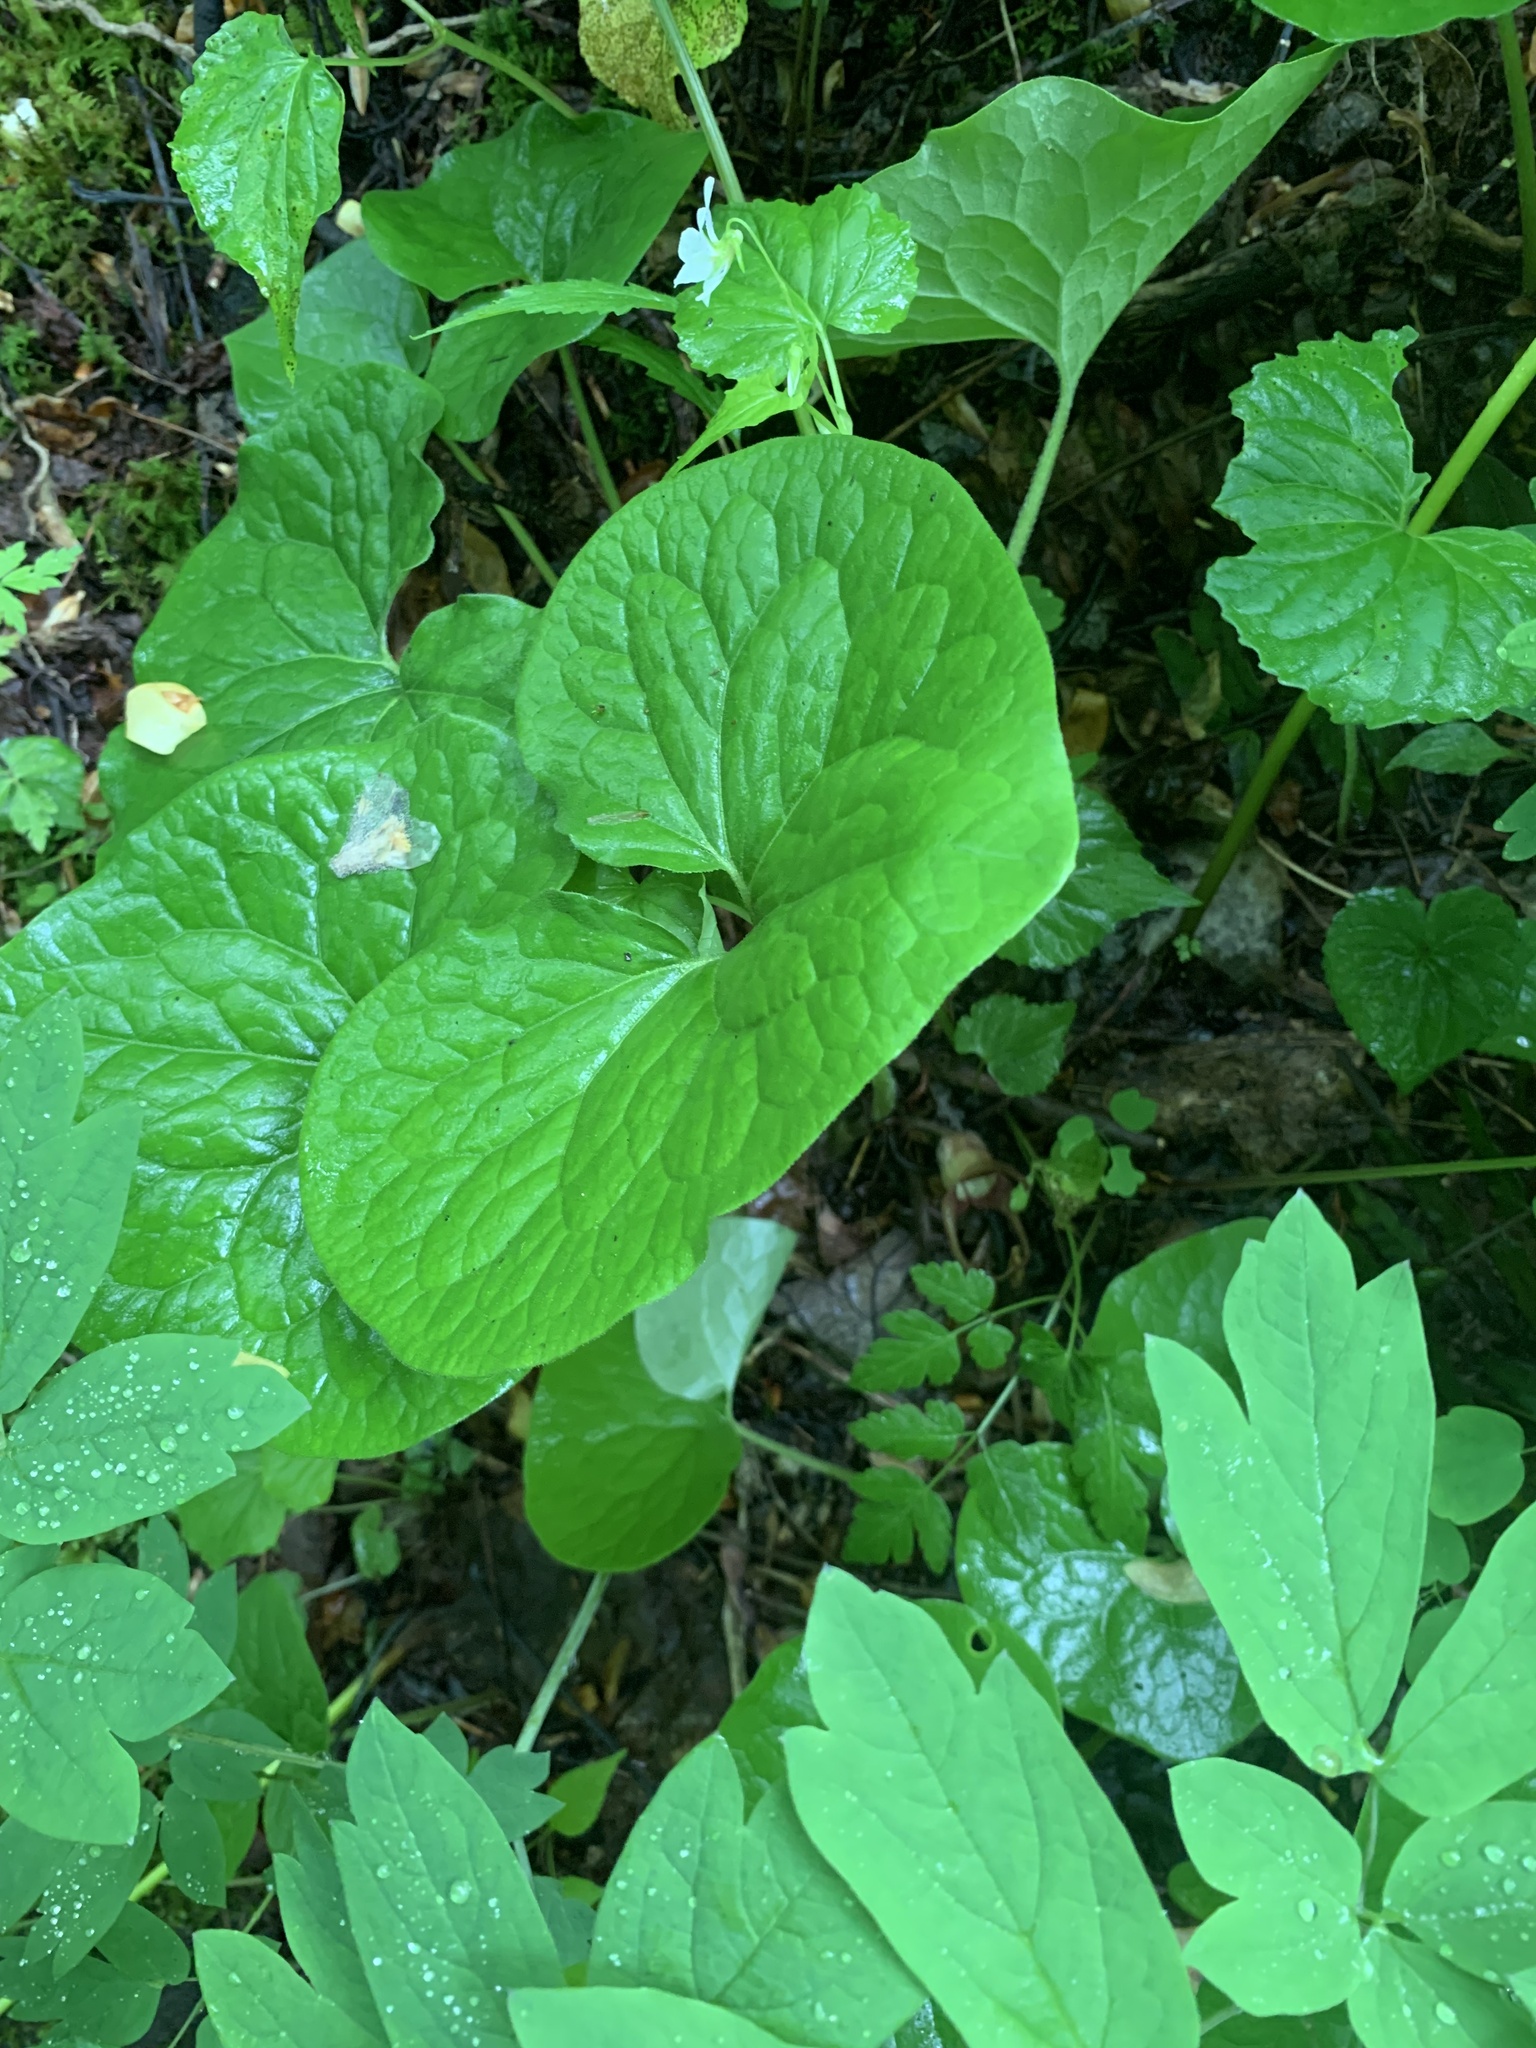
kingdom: Plantae
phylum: Tracheophyta
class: Magnoliopsida
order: Piperales
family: Aristolochiaceae
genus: Asarum
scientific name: Asarum canadense
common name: Wild ginger
